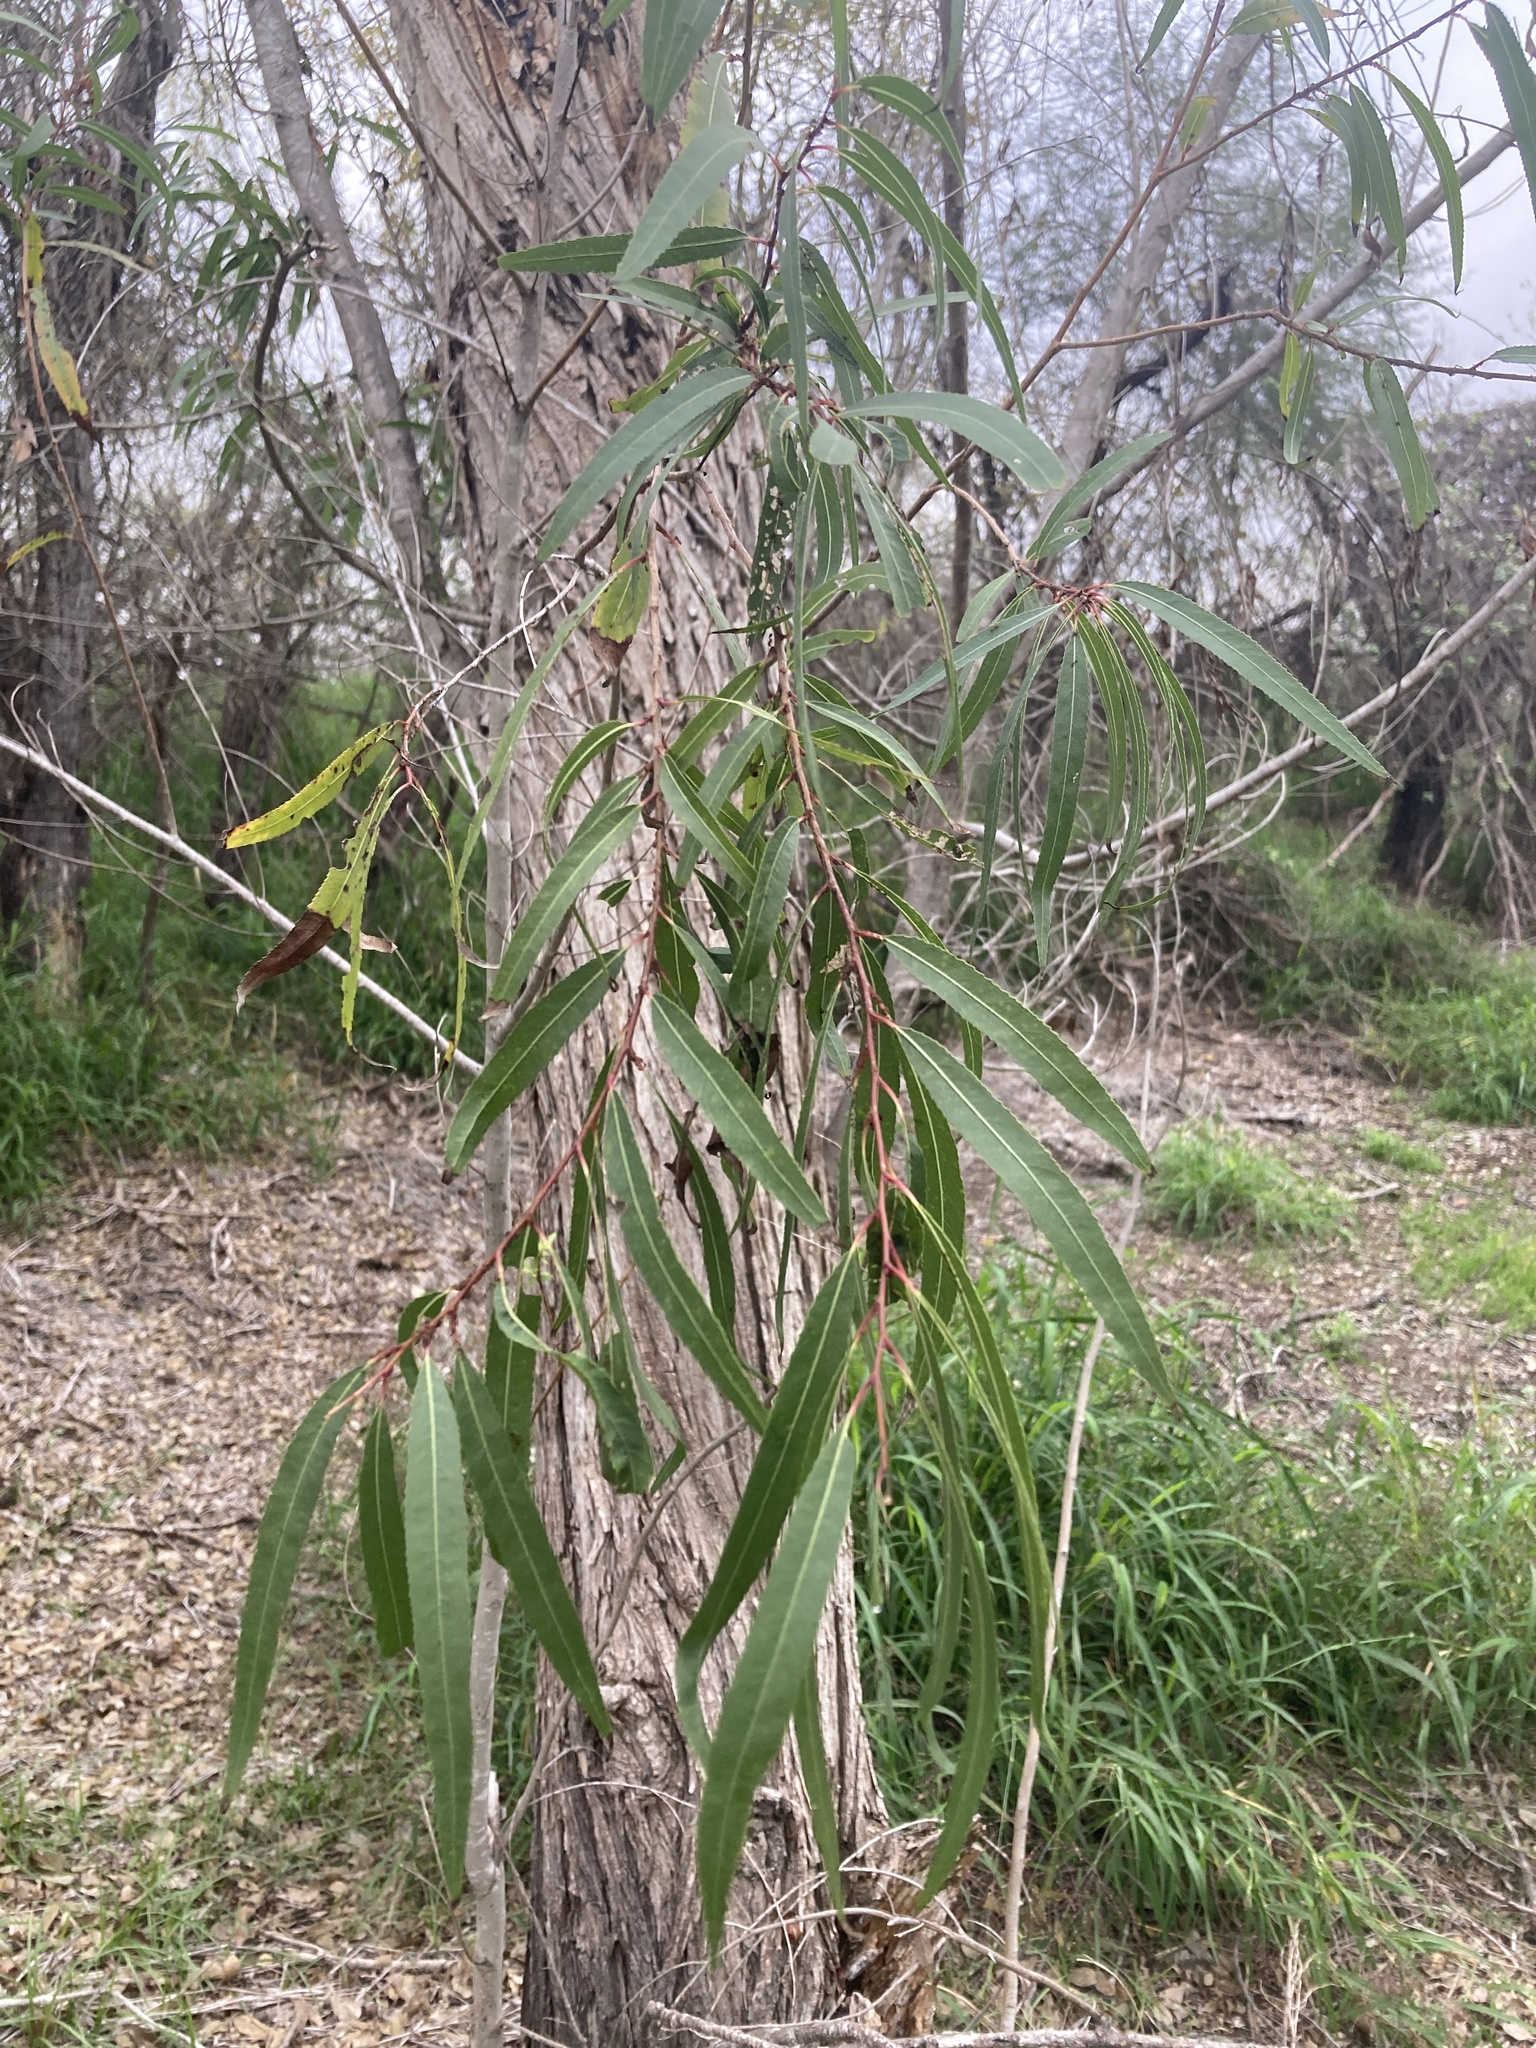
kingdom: Plantae
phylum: Tracheophyta
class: Magnoliopsida
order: Malpighiales
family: Salicaceae
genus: Salix
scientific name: Salix nigra
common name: Black willow
